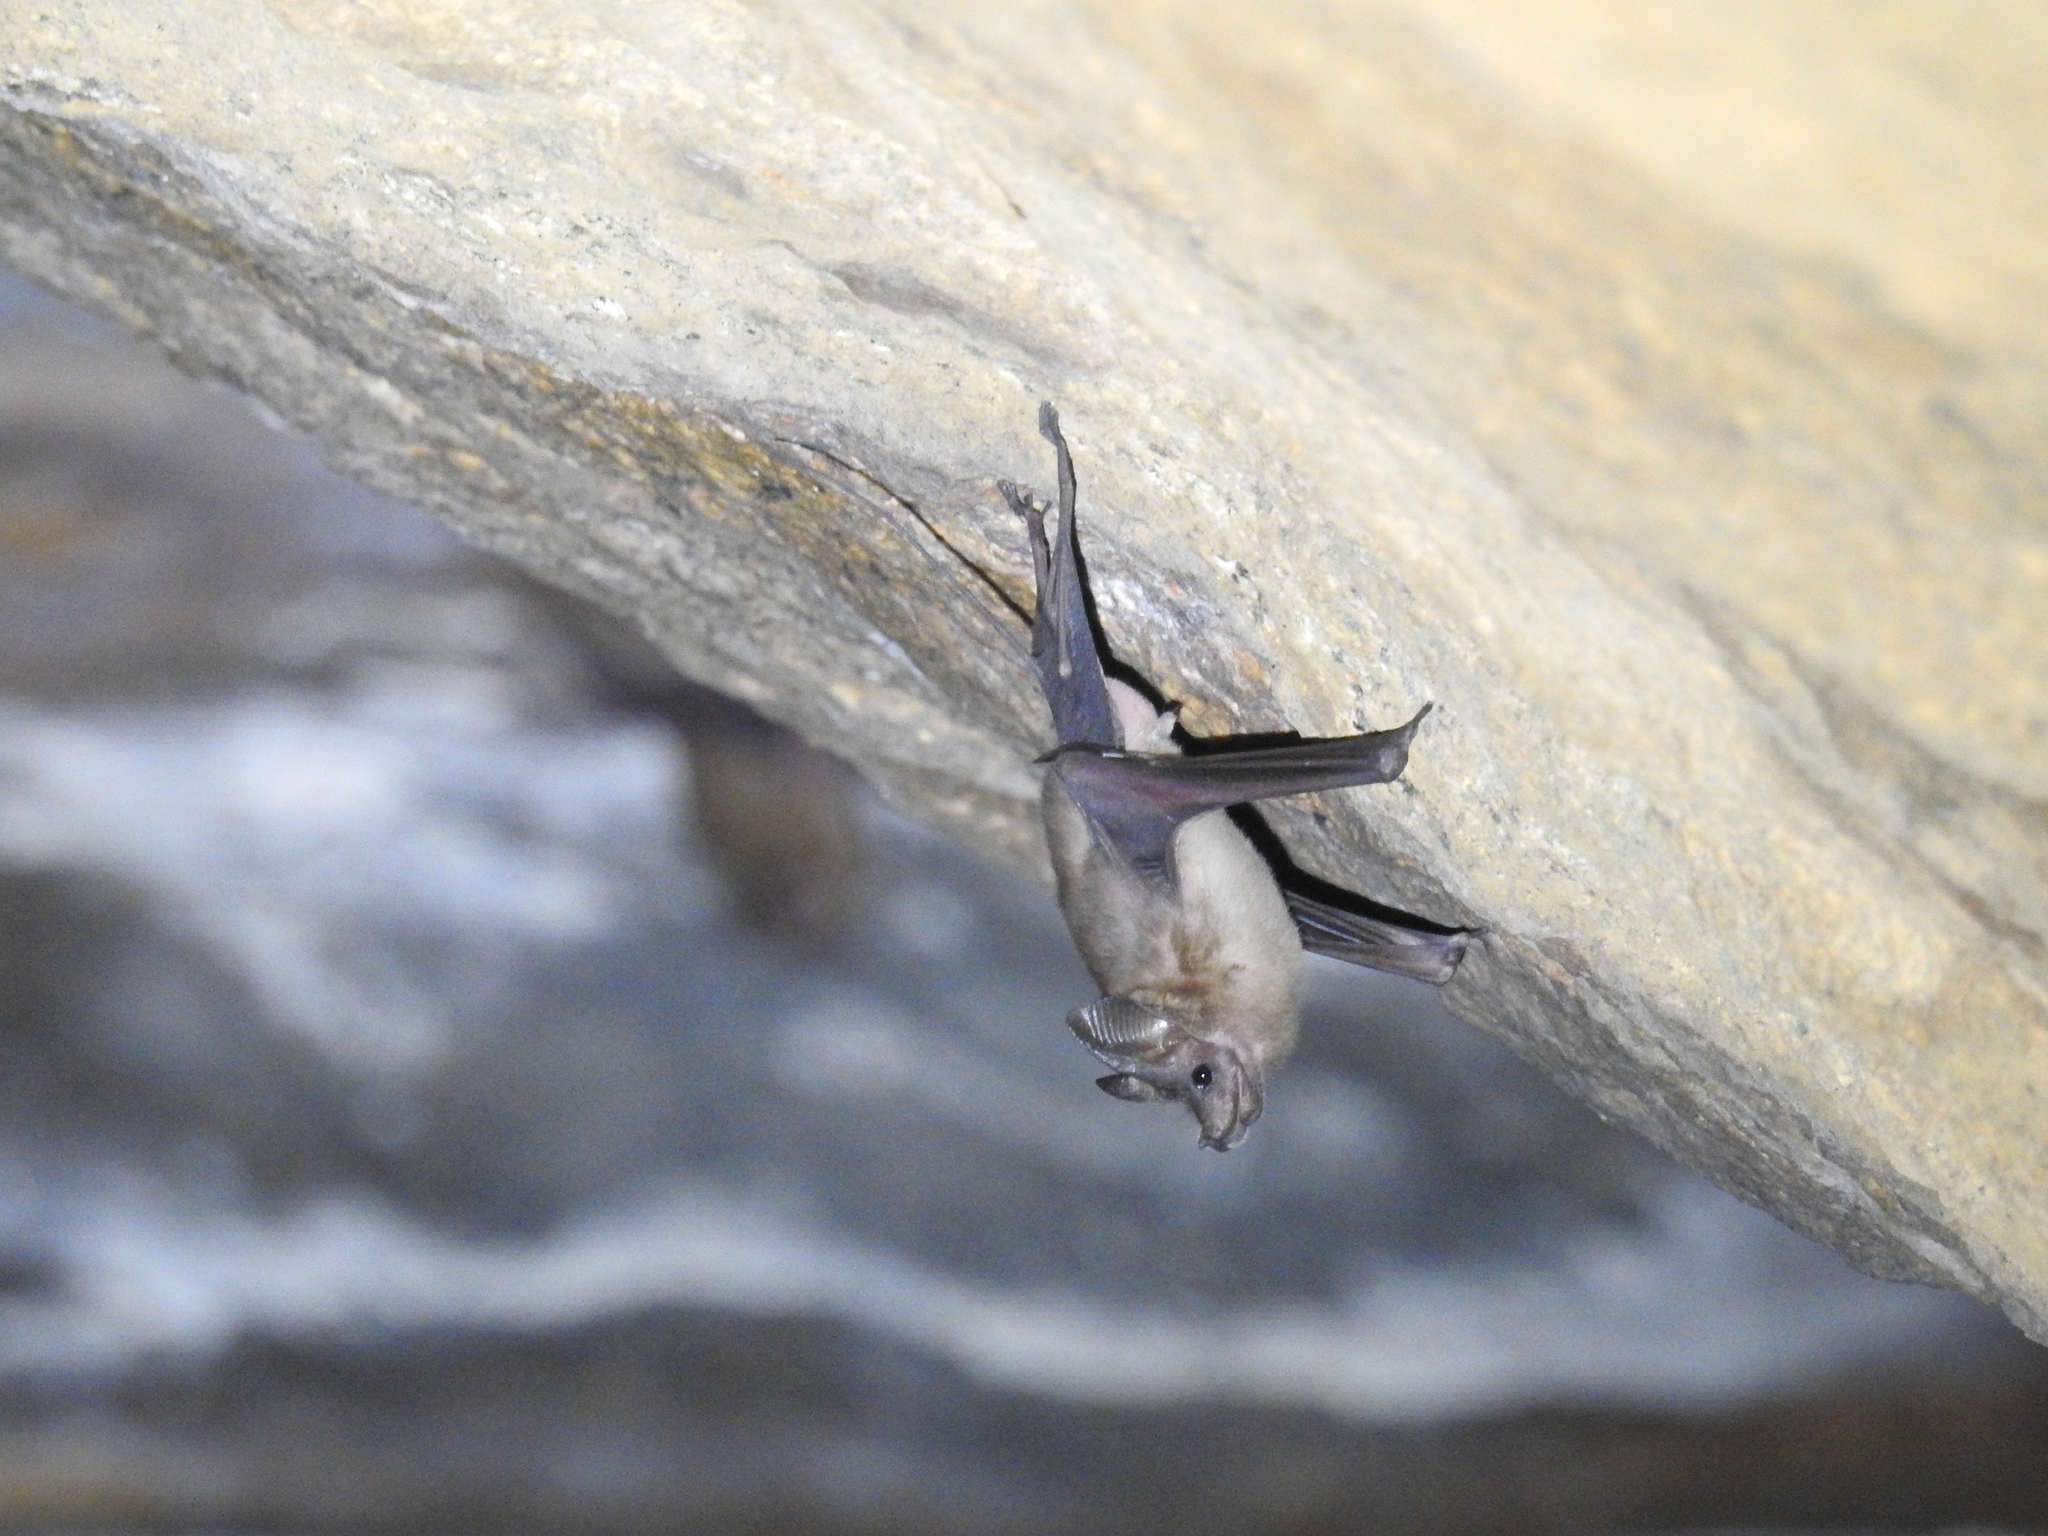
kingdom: Animalia
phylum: Chordata
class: Mammalia
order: Chiroptera
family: Rhinopomatidae
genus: Rhinopoma
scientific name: Rhinopoma hardwickii
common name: Lesser mouse-tailed bat
